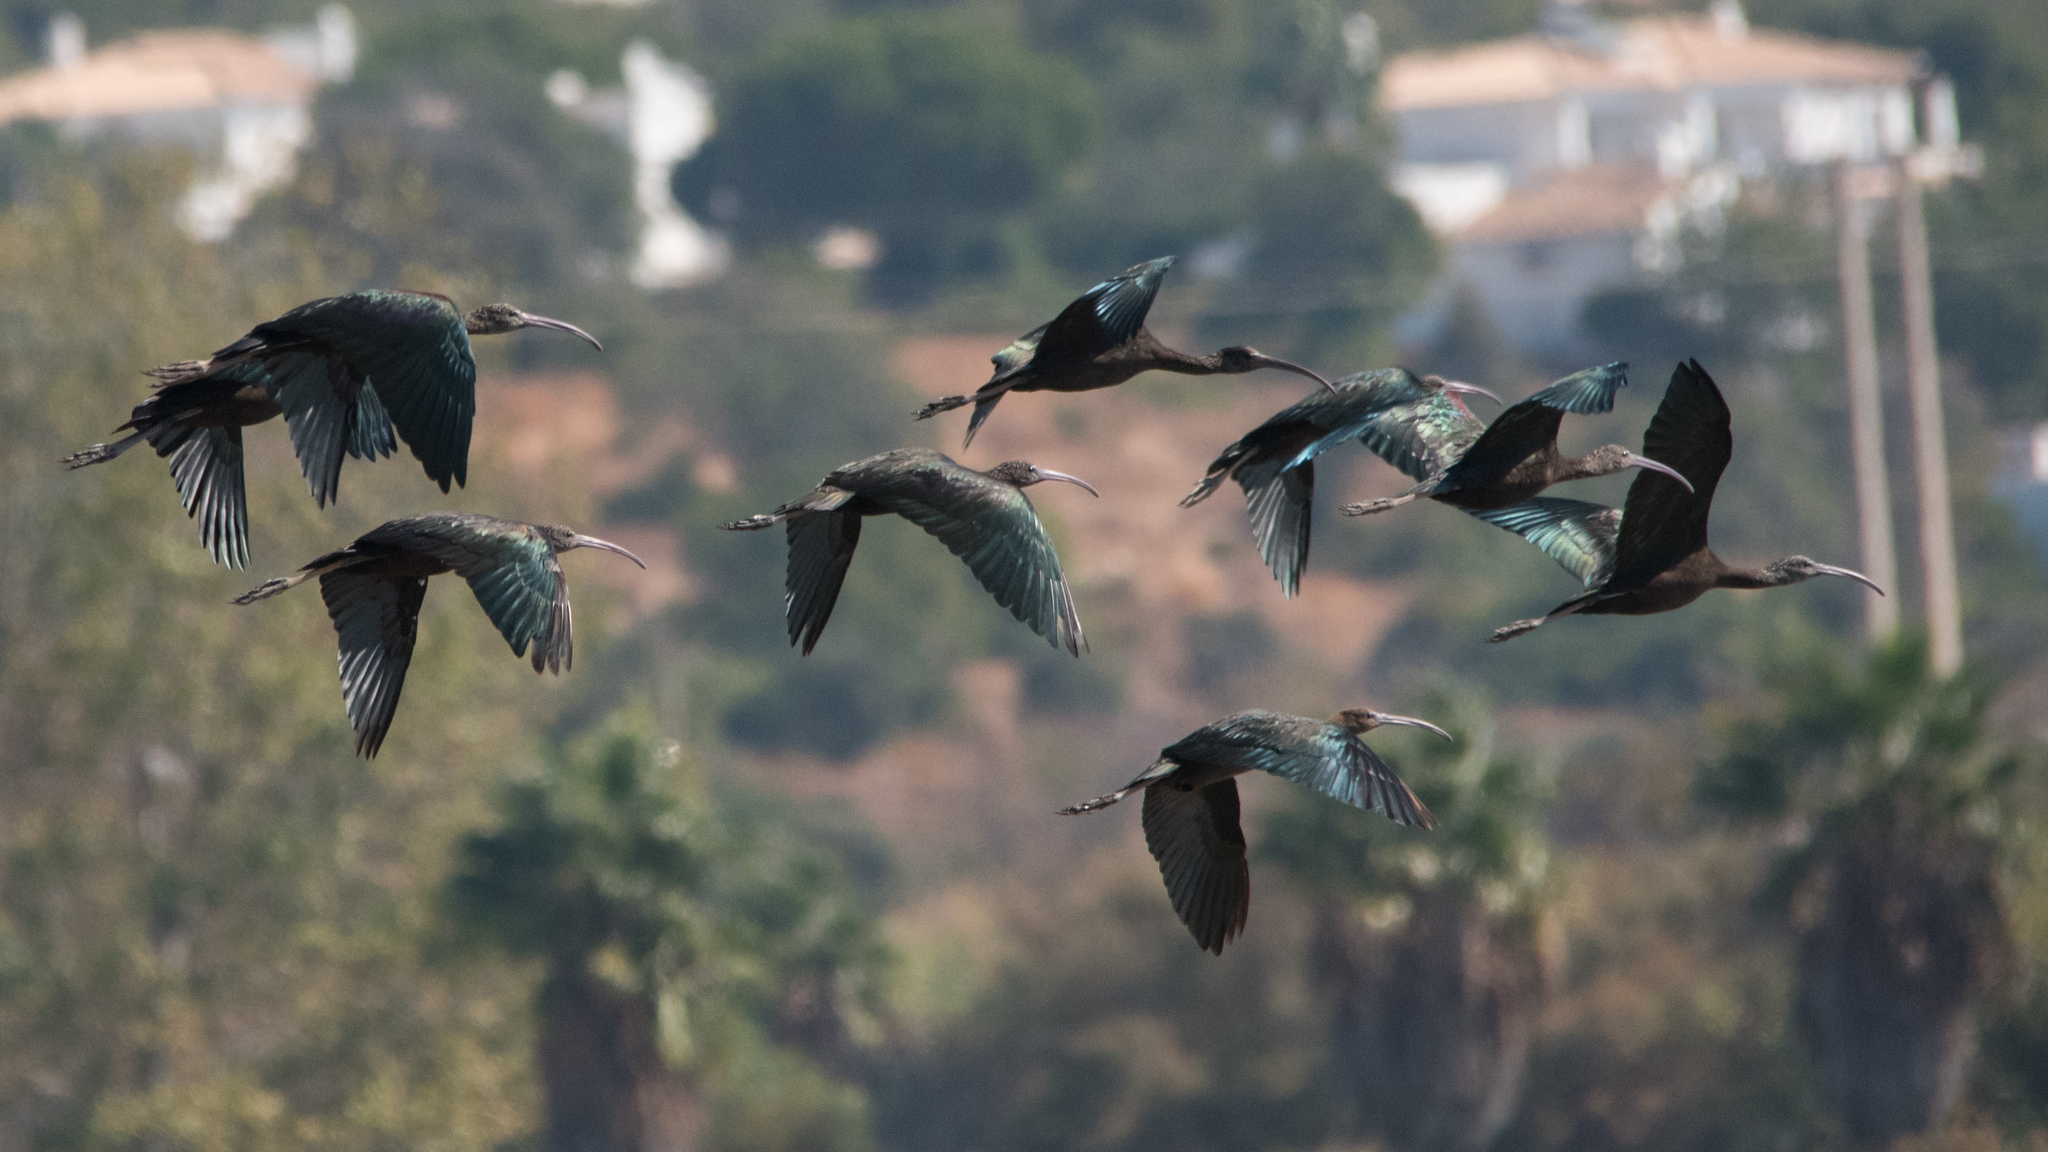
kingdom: Animalia
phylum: Chordata
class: Aves
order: Pelecaniformes
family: Threskiornithidae
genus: Plegadis
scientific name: Plegadis falcinellus
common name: Glossy ibis
